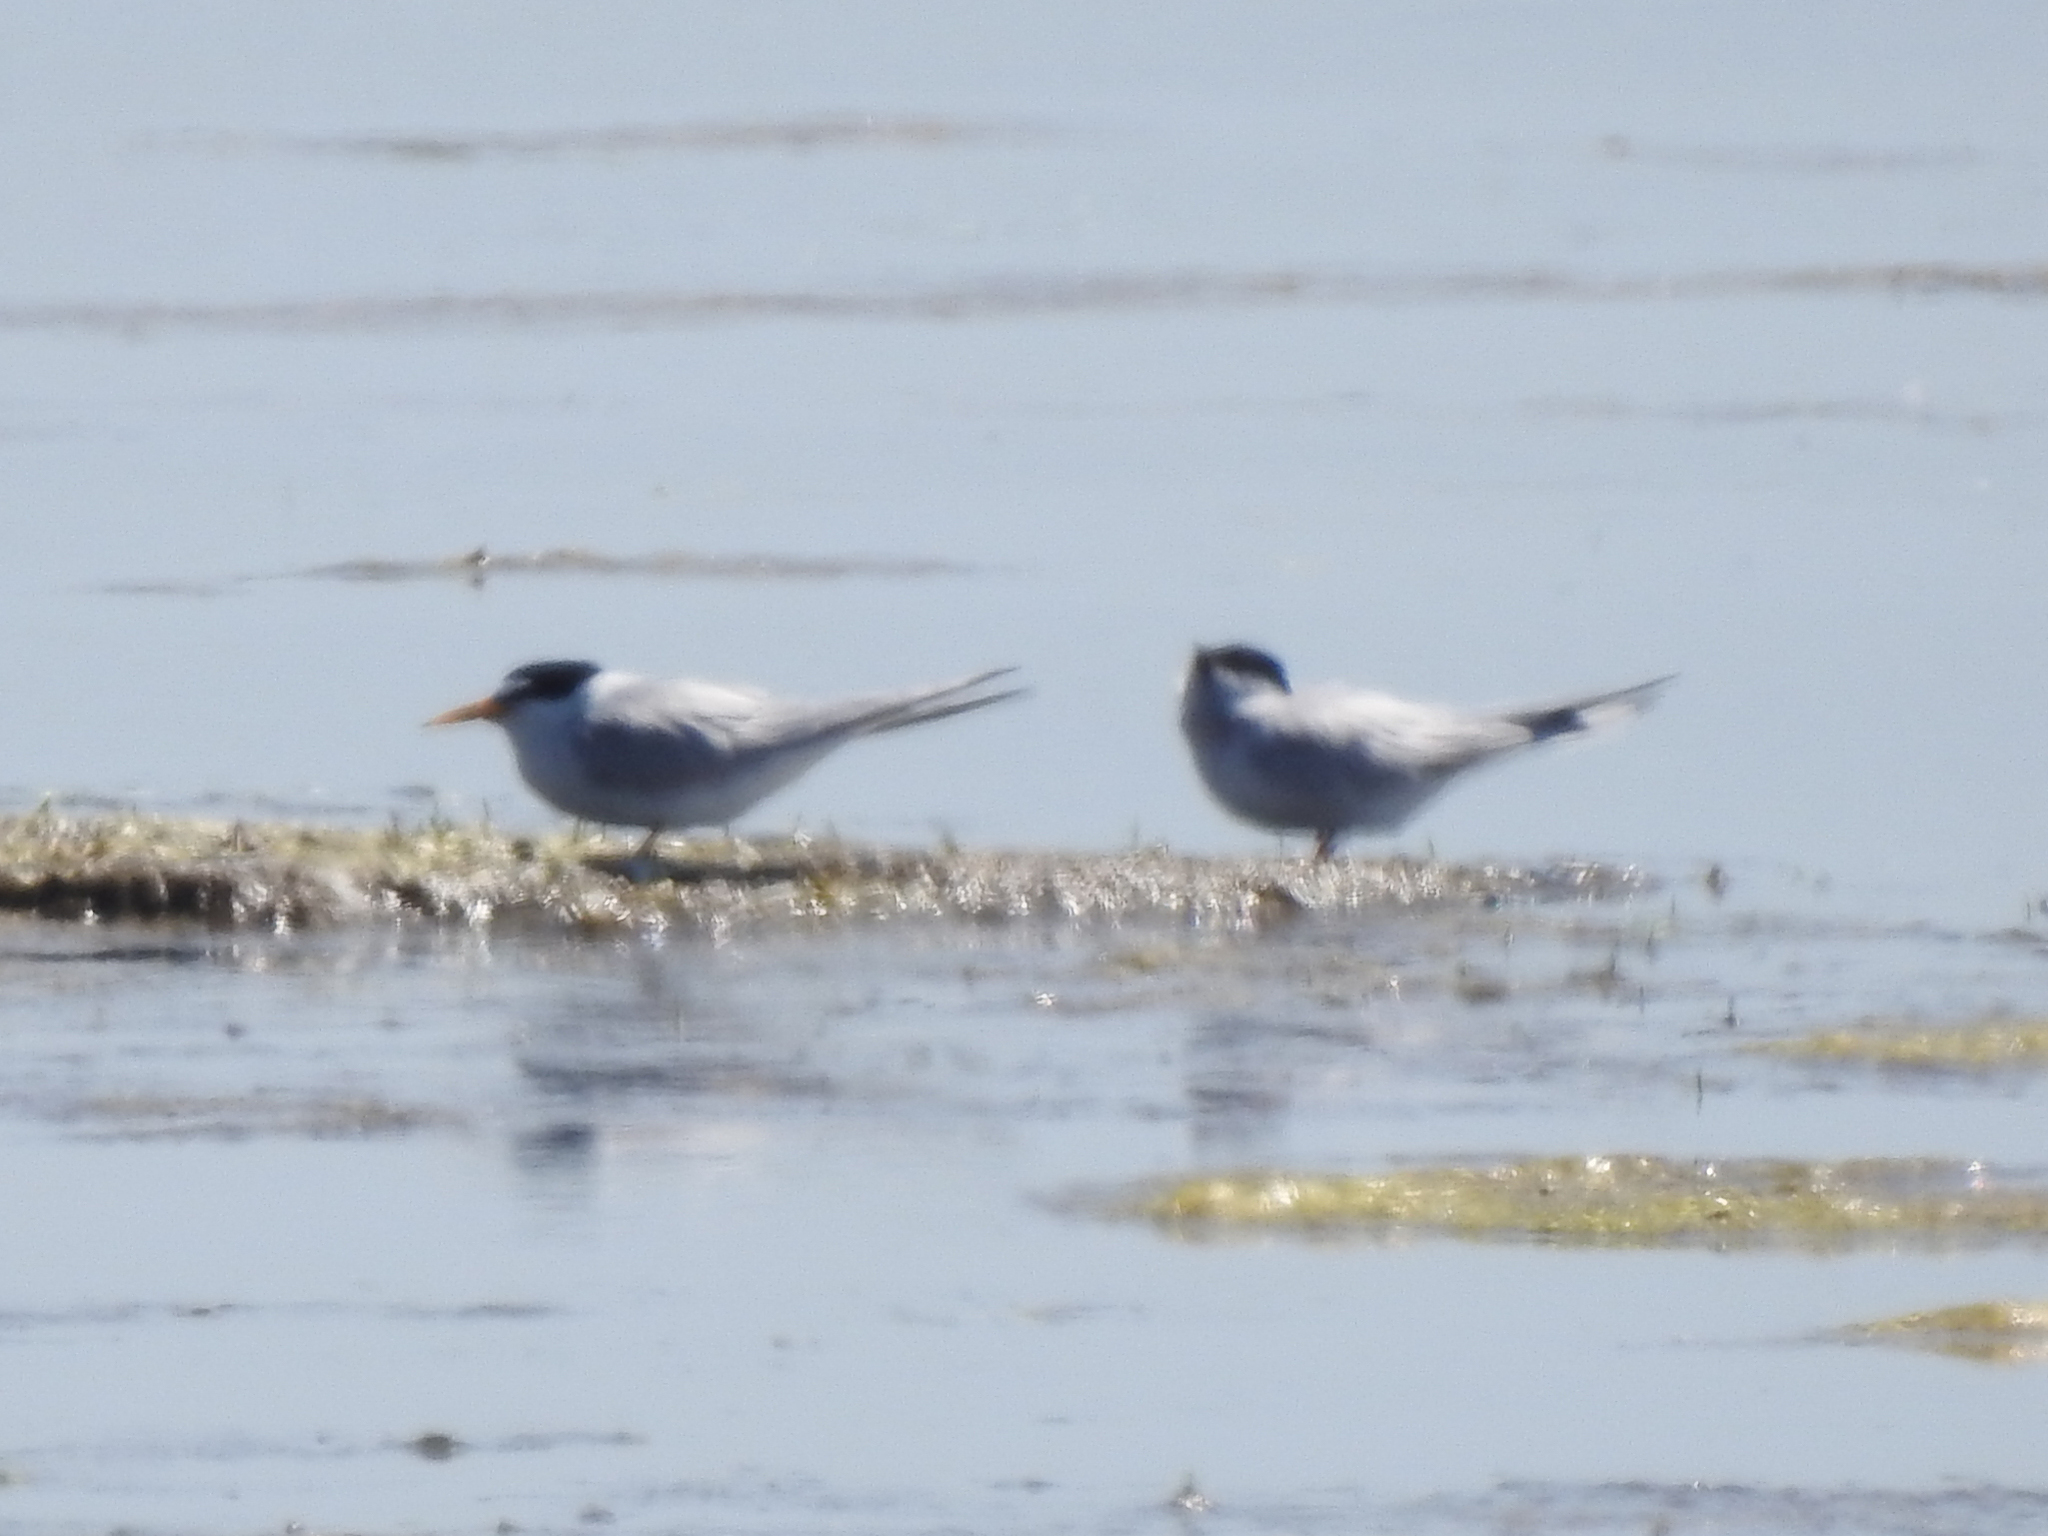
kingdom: Animalia
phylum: Chordata
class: Aves
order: Charadriiformes
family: Laridae
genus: Sternula
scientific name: Sternula antillarum
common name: Least tern
